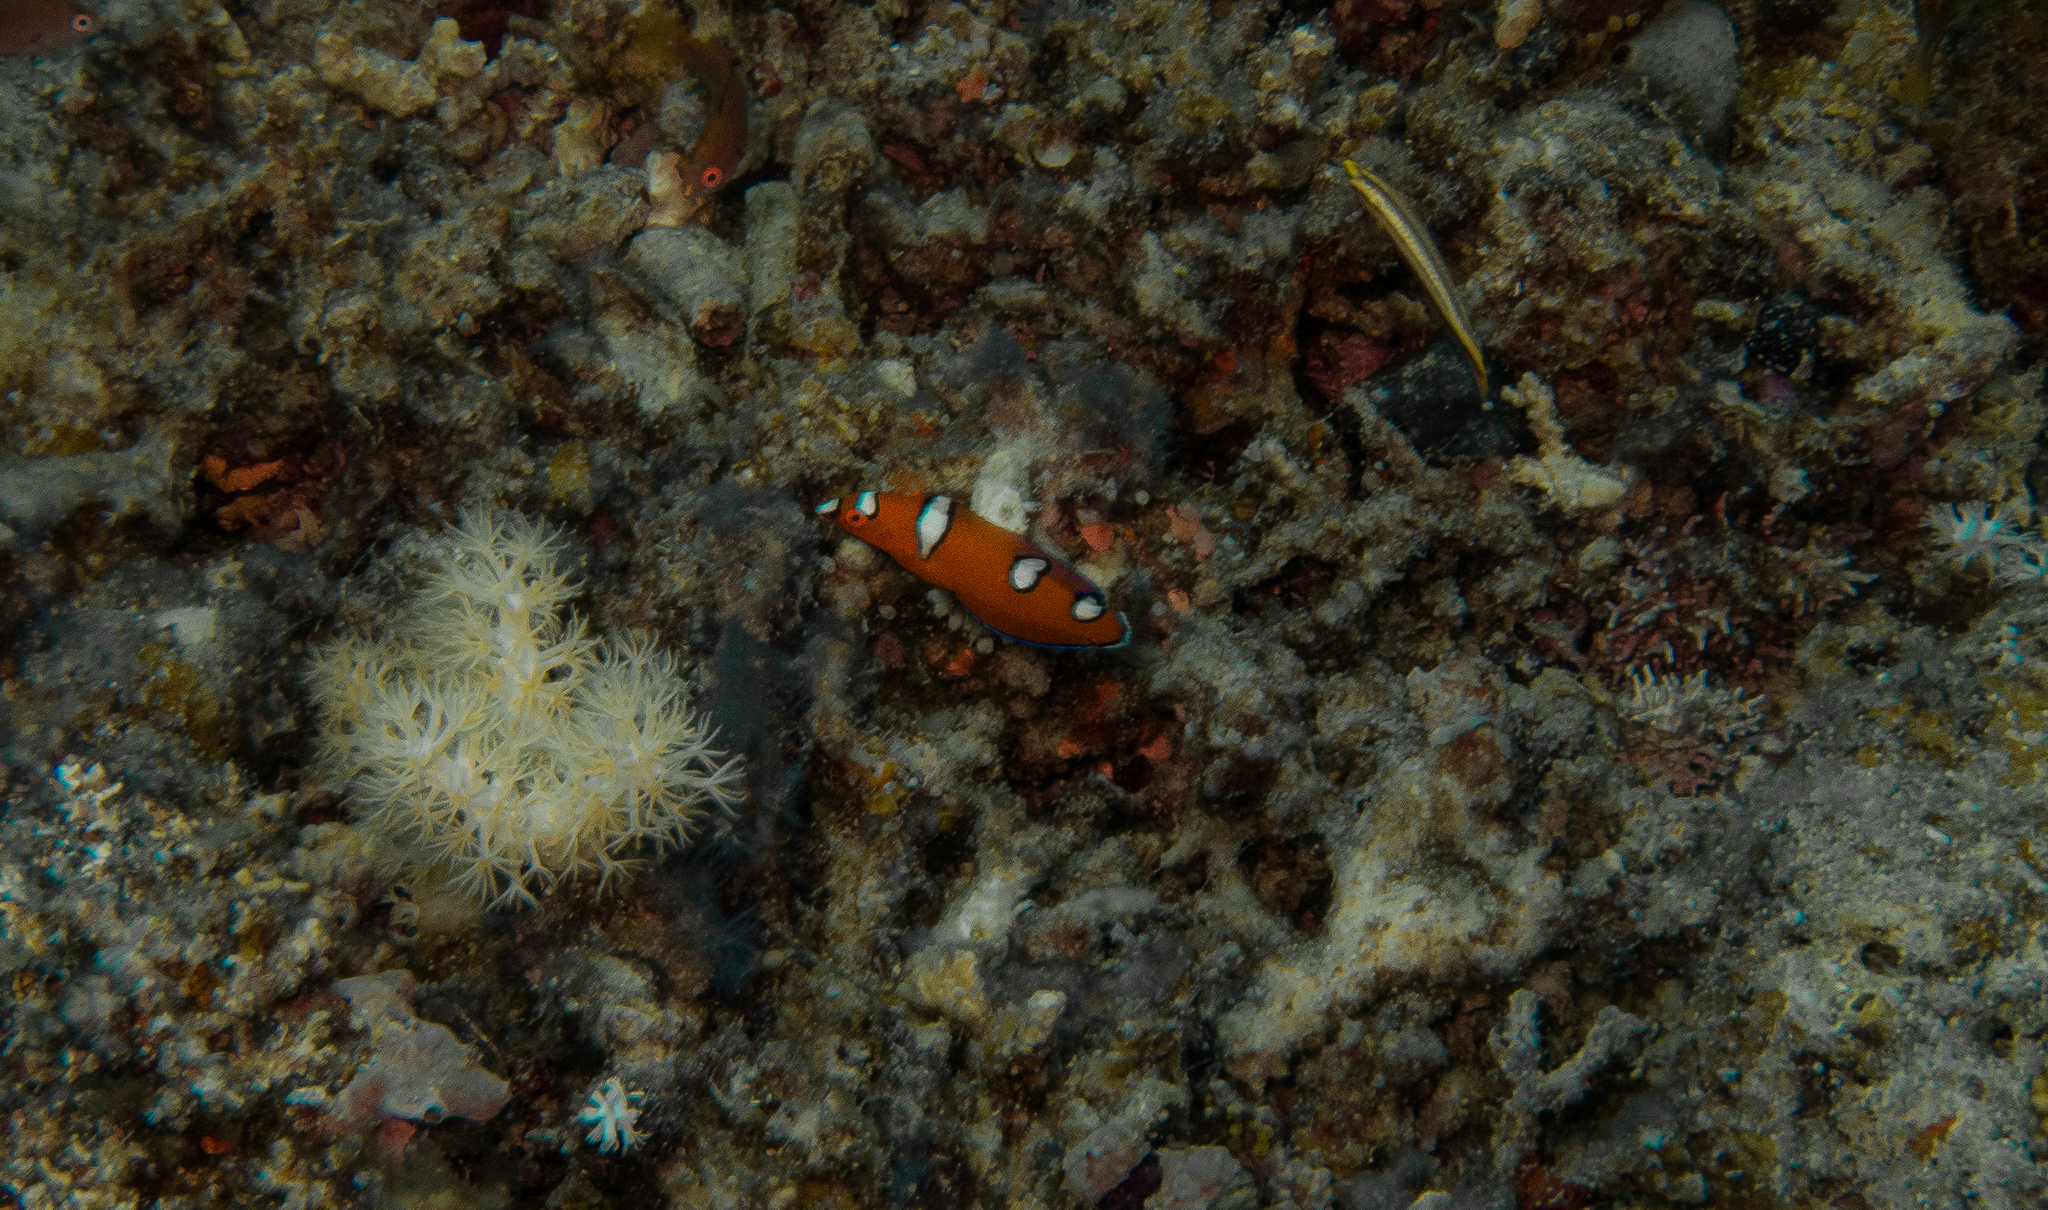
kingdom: Animalia
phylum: Chordata
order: Perciformes
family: Labridae
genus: Coris
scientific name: Coris gaimard
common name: Yellowtail coris
